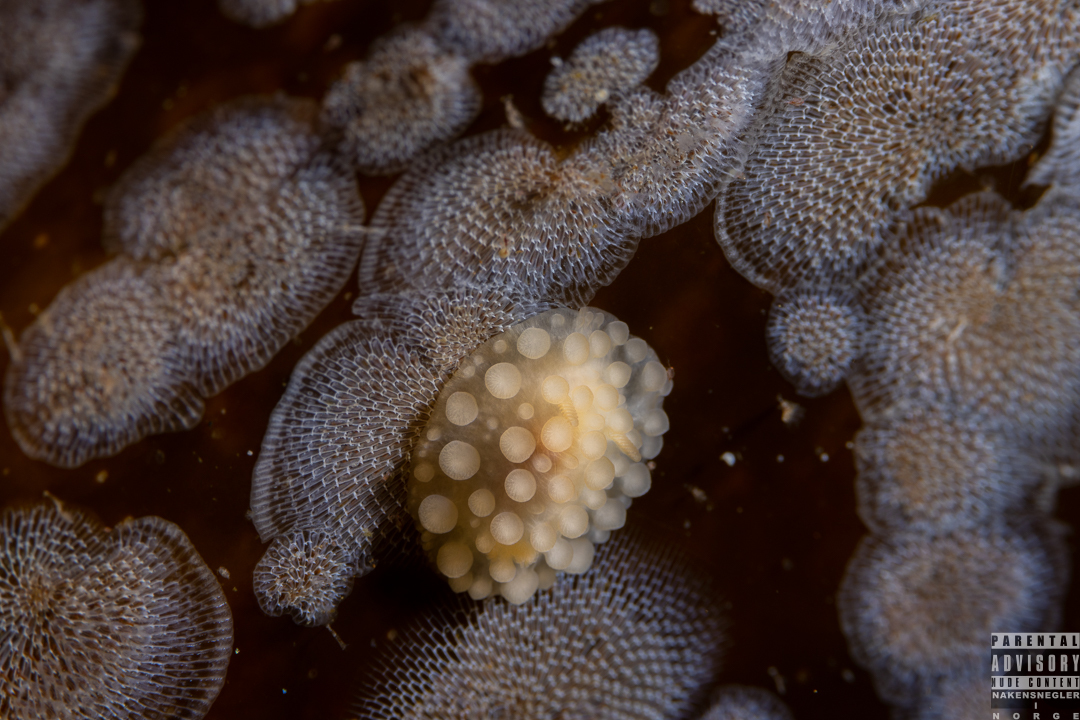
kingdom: Animalia
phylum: Mollusca
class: Gastropoda
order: Nudibranchia
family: Onchidorididae
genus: Adalaria
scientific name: Adalaria loveni
